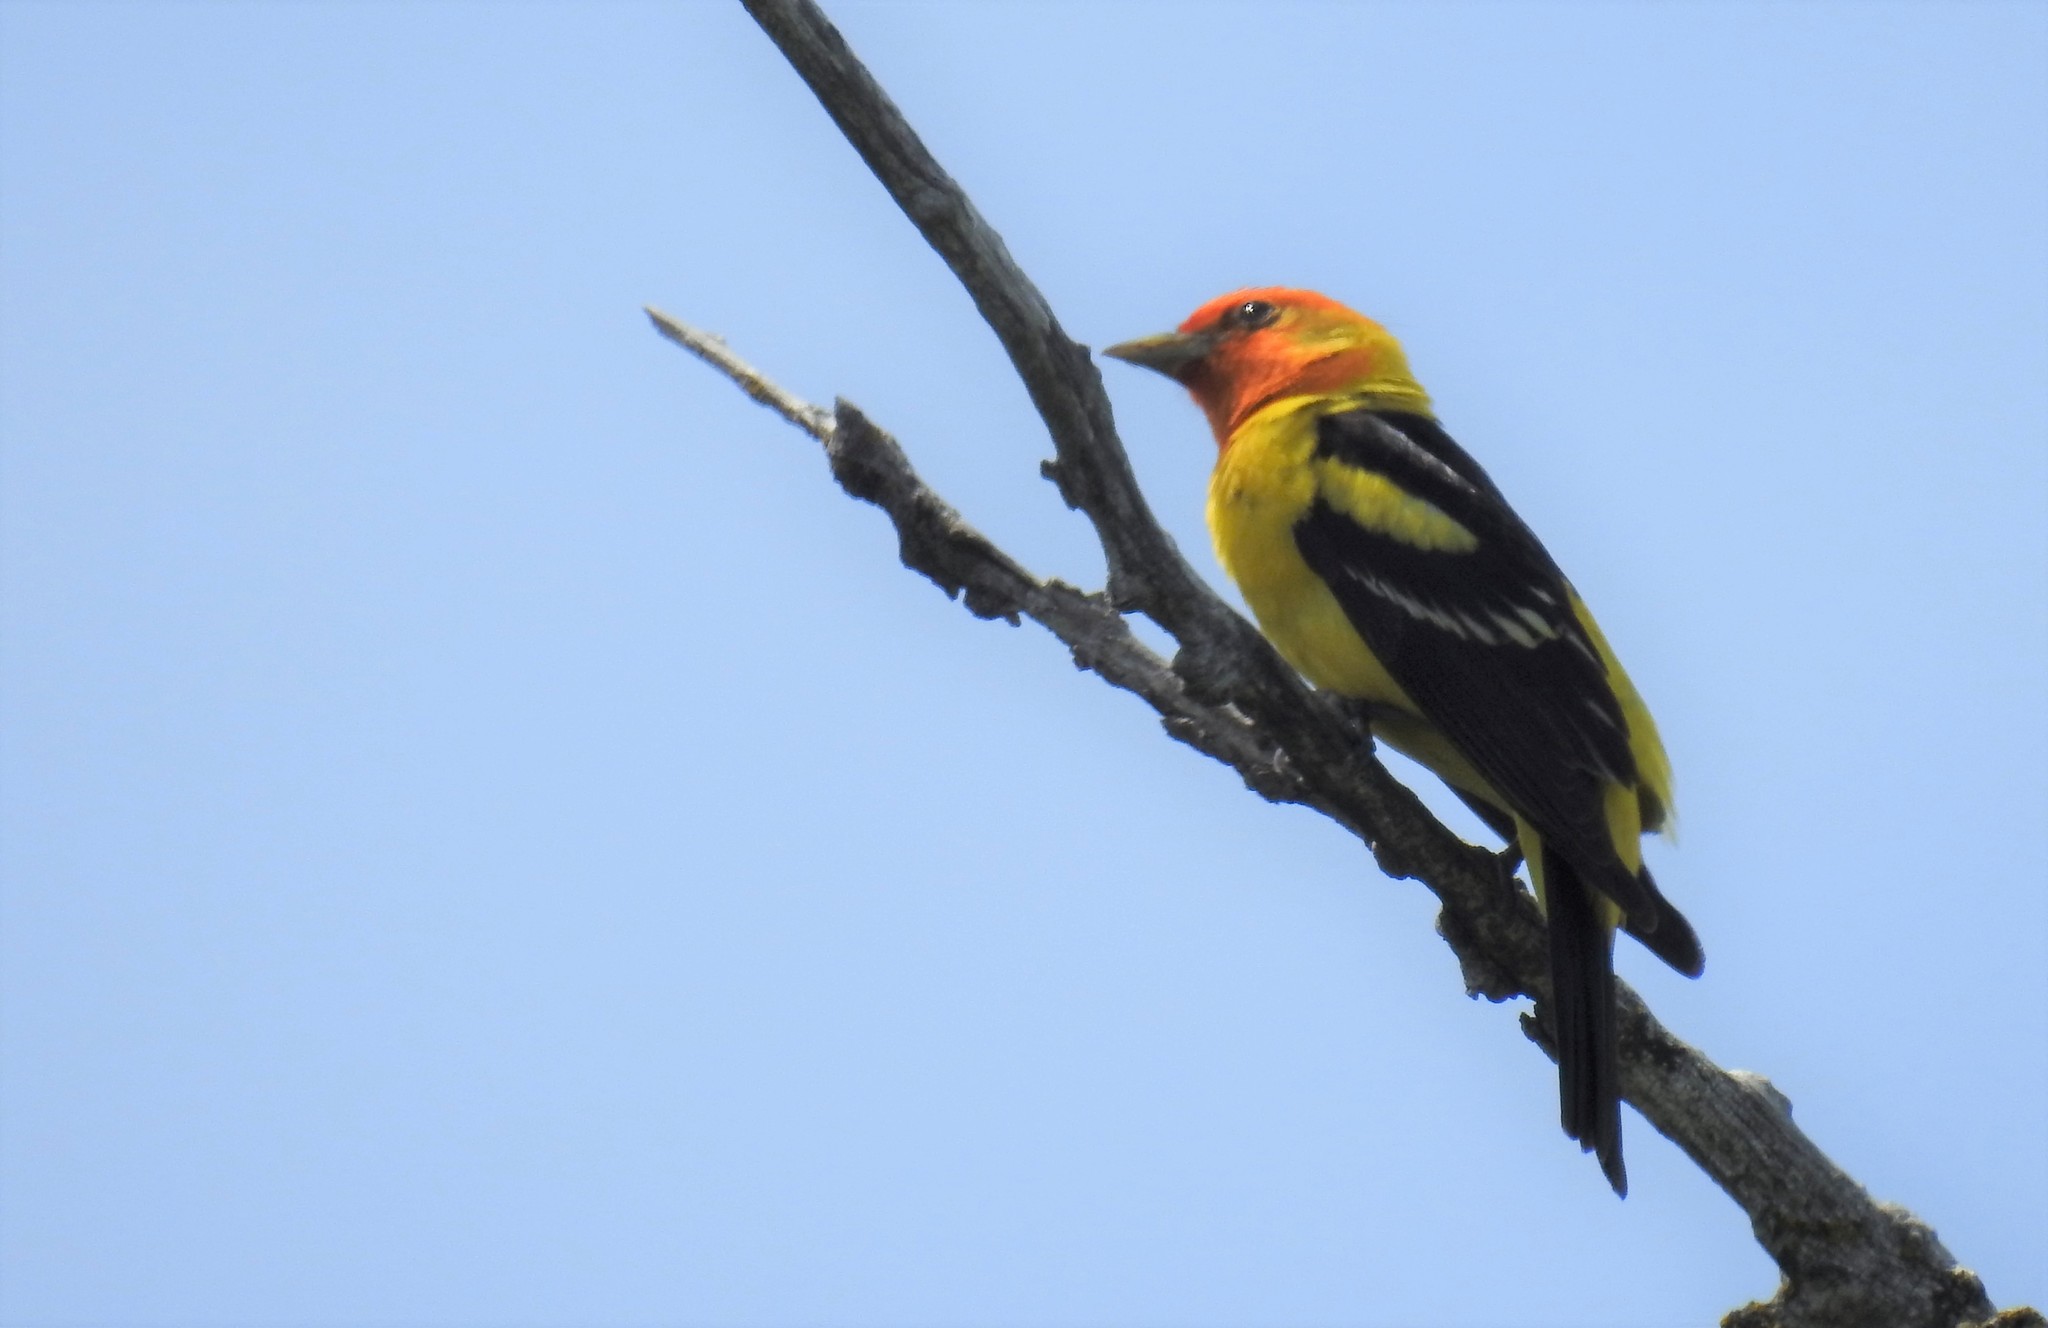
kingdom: Animalia
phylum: Chordata
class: Aves
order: Passeriformes
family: Cardinalidae
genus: Piranga
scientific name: Piranga ludoviciana
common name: Western tanager
